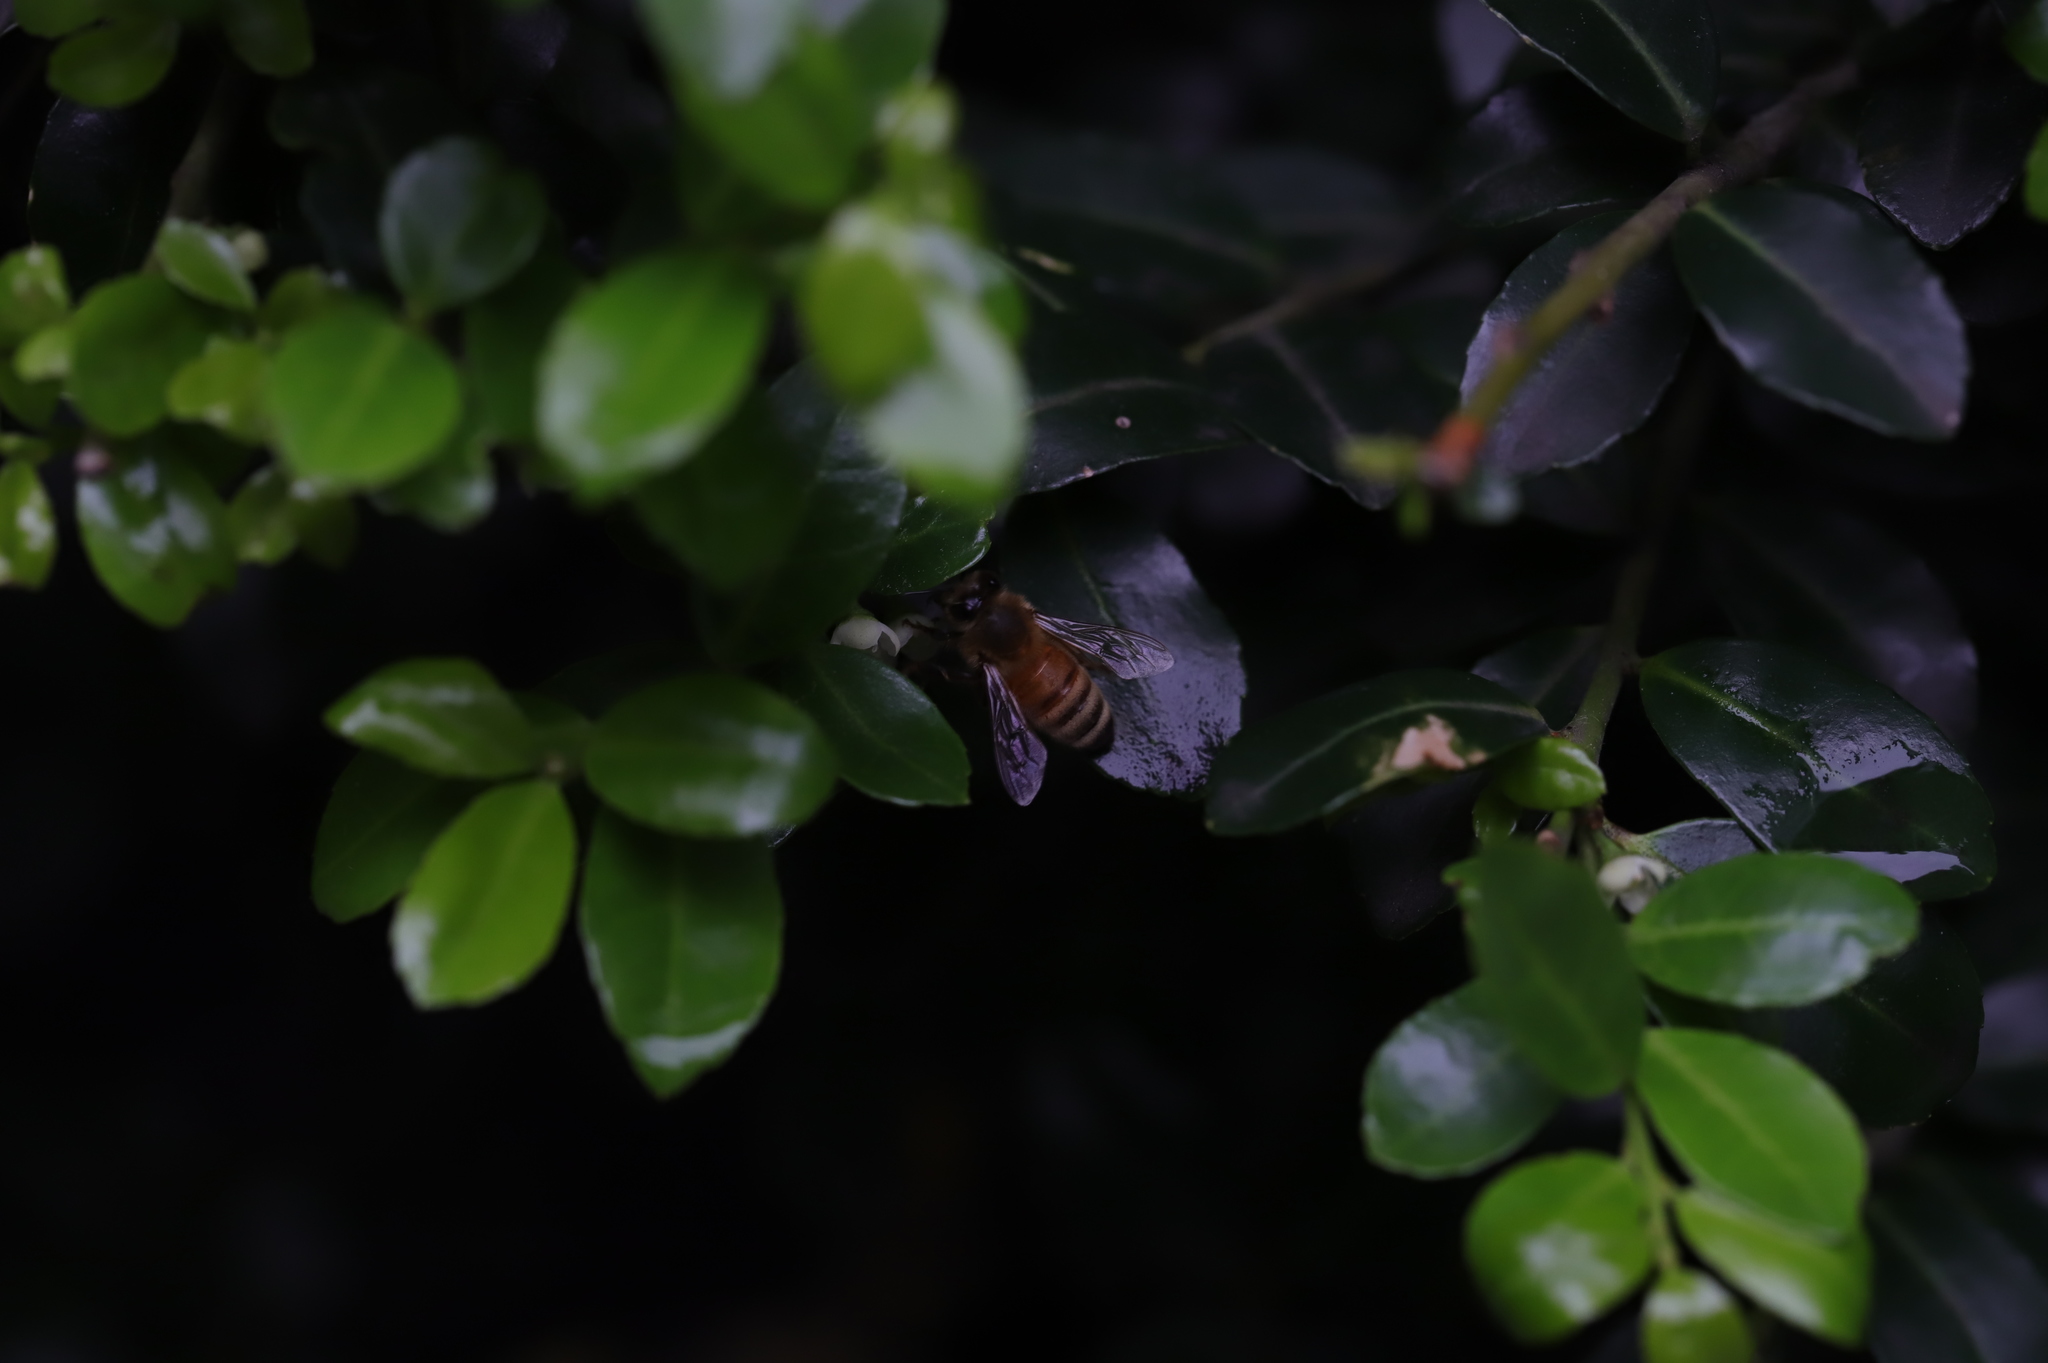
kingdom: Animalia
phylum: Arthropoda
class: Insecta
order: Hymenoptera
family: Apidae
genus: Apis
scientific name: Apis mellifera
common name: Honey bee
